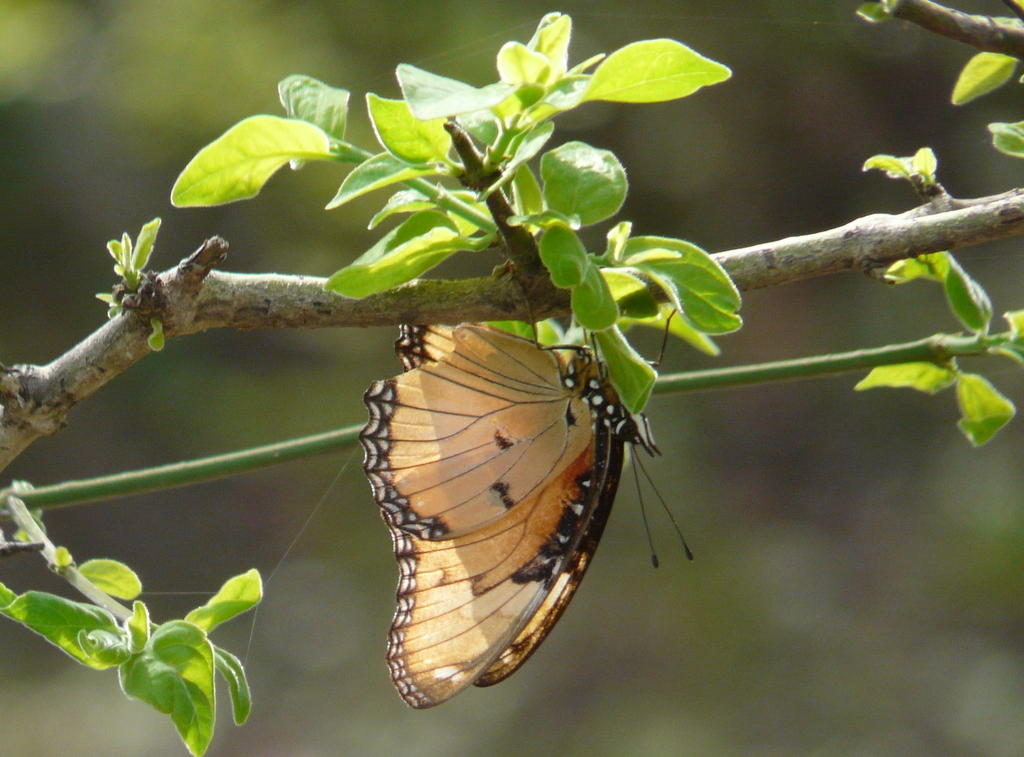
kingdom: Animalia
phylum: Arthropoda
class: Insecta
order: Lepidoptera
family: Nymphalidae
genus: Hypolimnas
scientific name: Hypolimnas misippus
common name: False plain tiger
